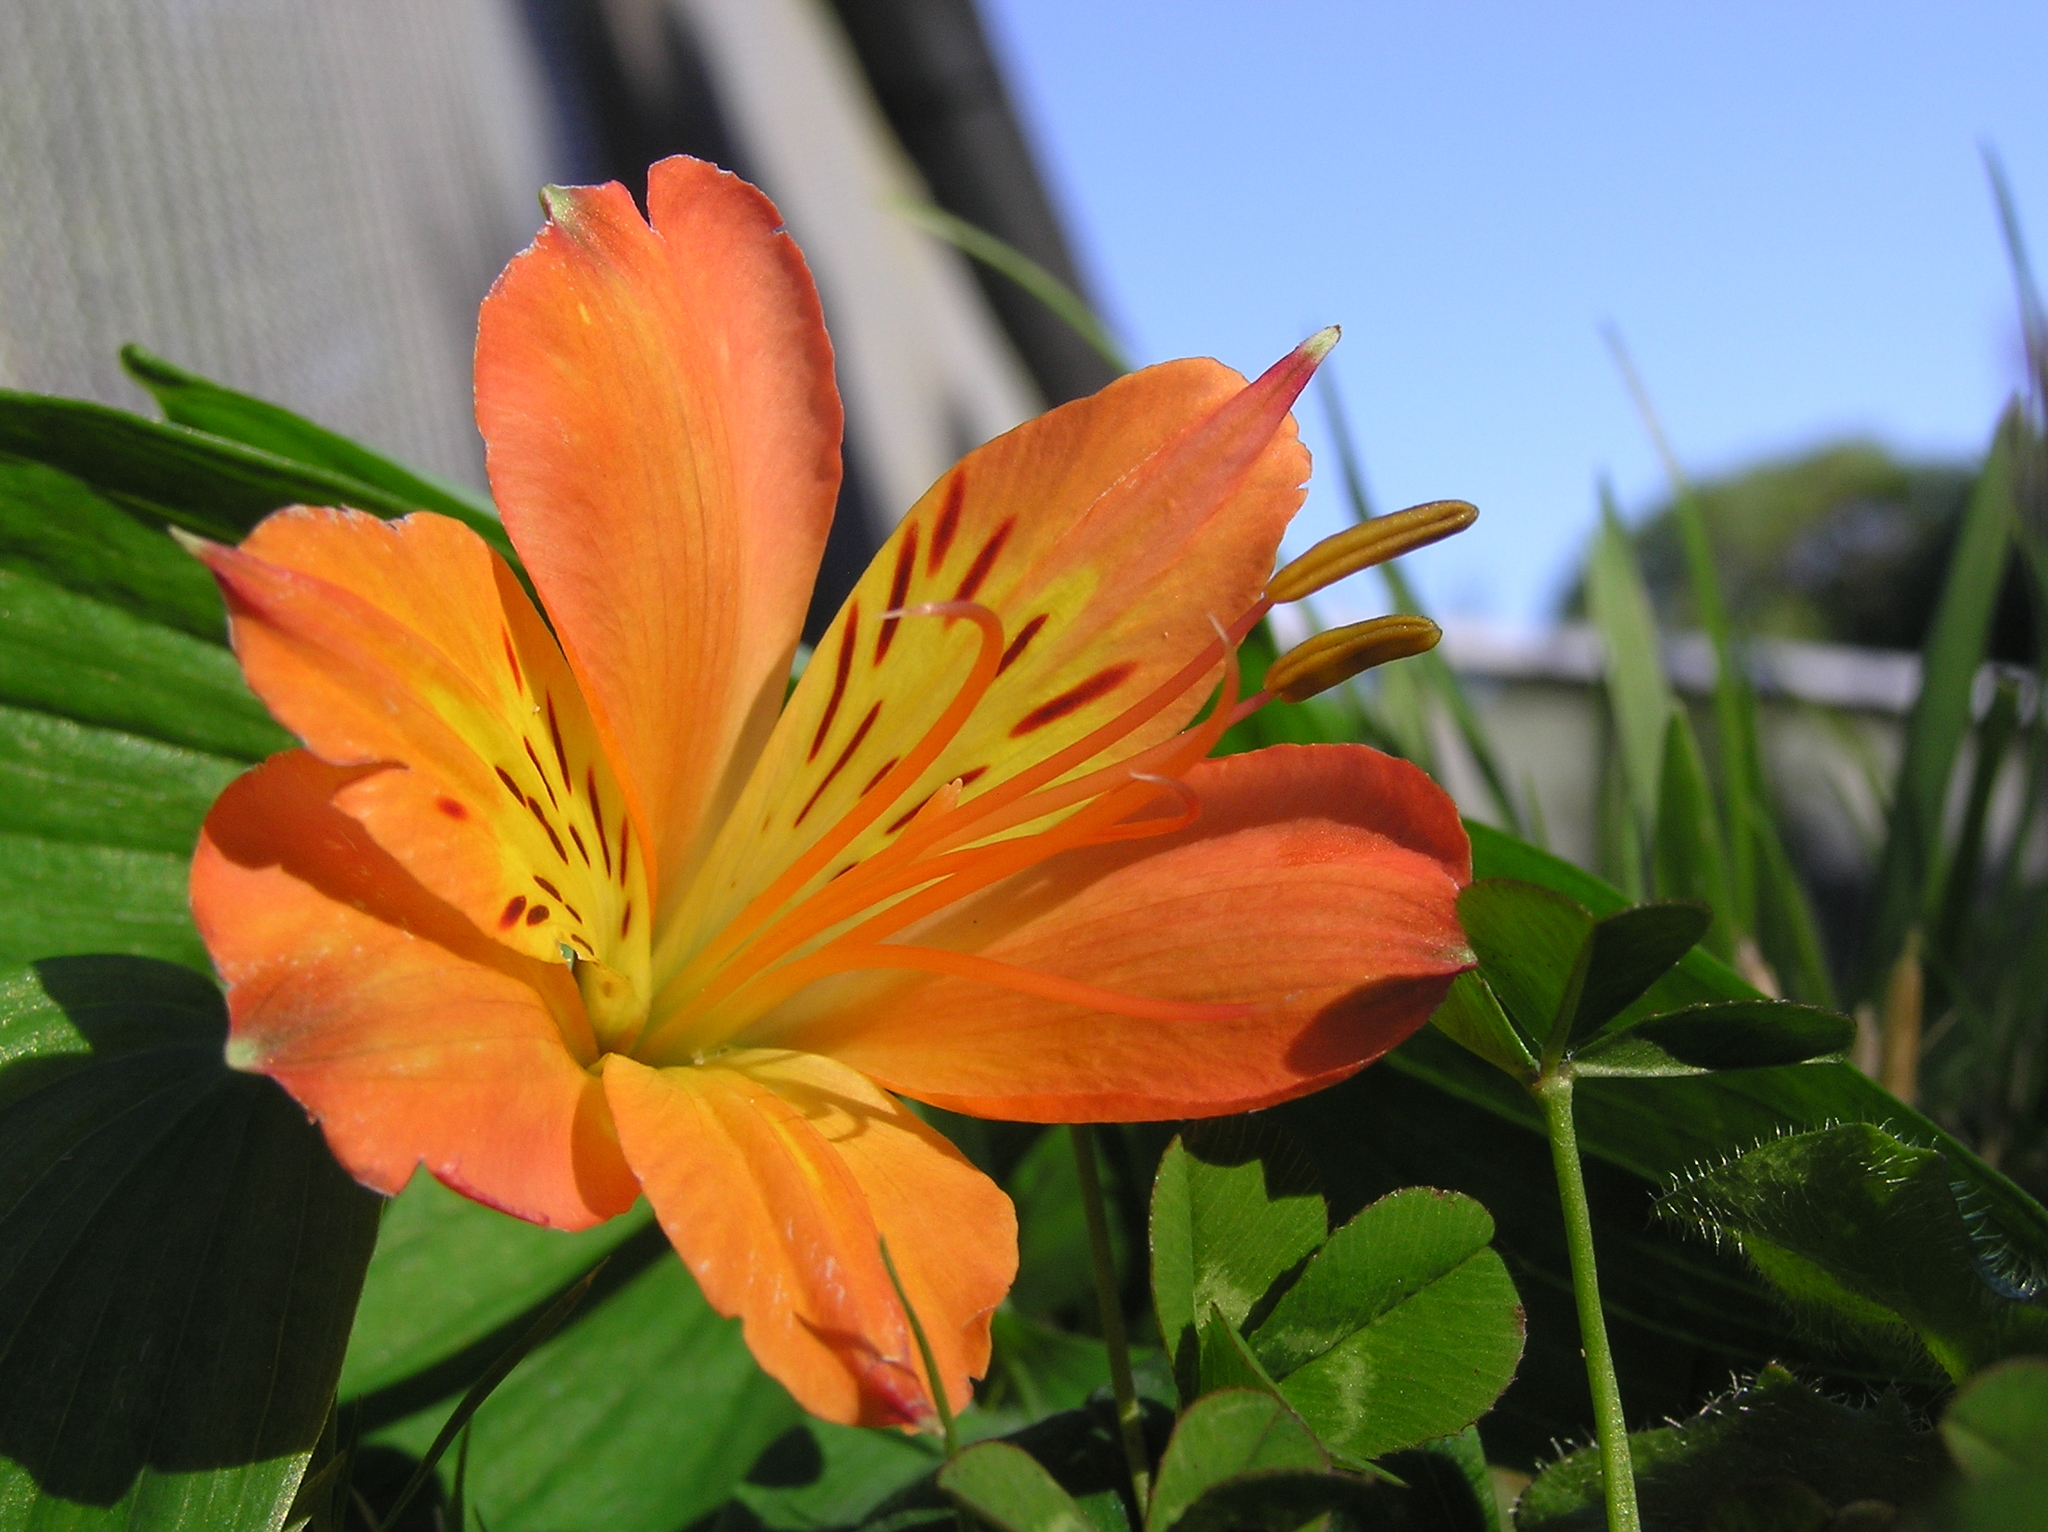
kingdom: Plantae
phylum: Tracheophyta
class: Liliopsida
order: Liliales
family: Alstroemeriaceae
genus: Alstroemeria
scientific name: Alstroemeria aurea
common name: Peruvian lily
